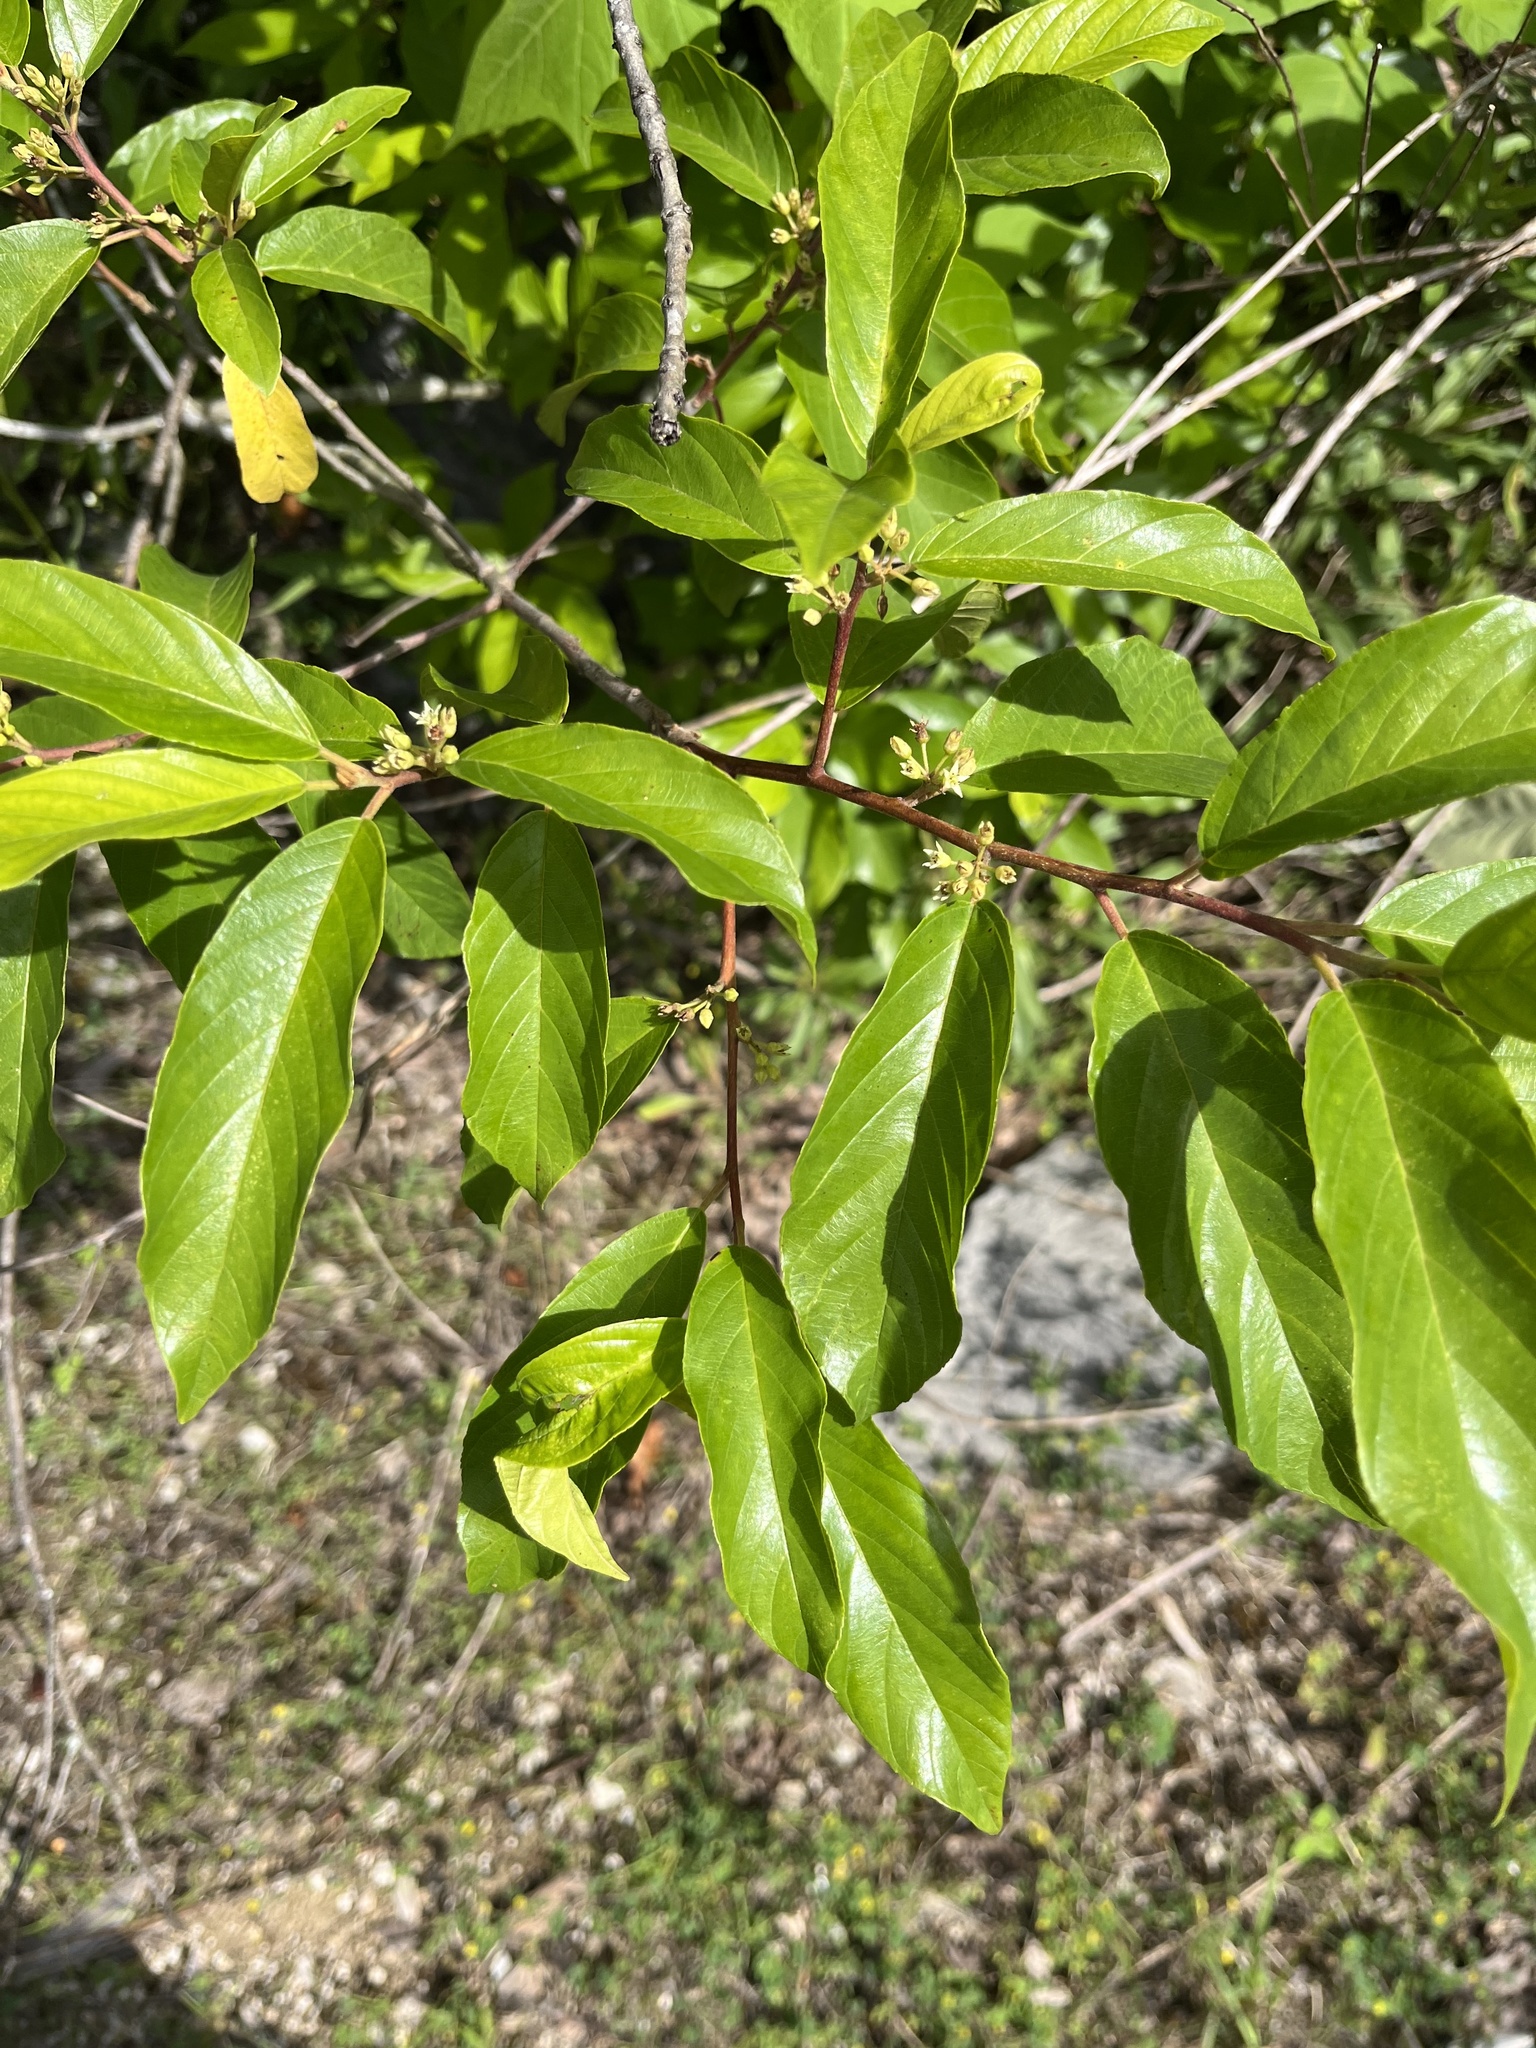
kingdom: Plantae
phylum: Tracheophyta
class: Magnoliopsida
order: Rosales
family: Rhamnaceae
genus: Frangula
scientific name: Frangula caroliniana
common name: Carolina buckthorn
